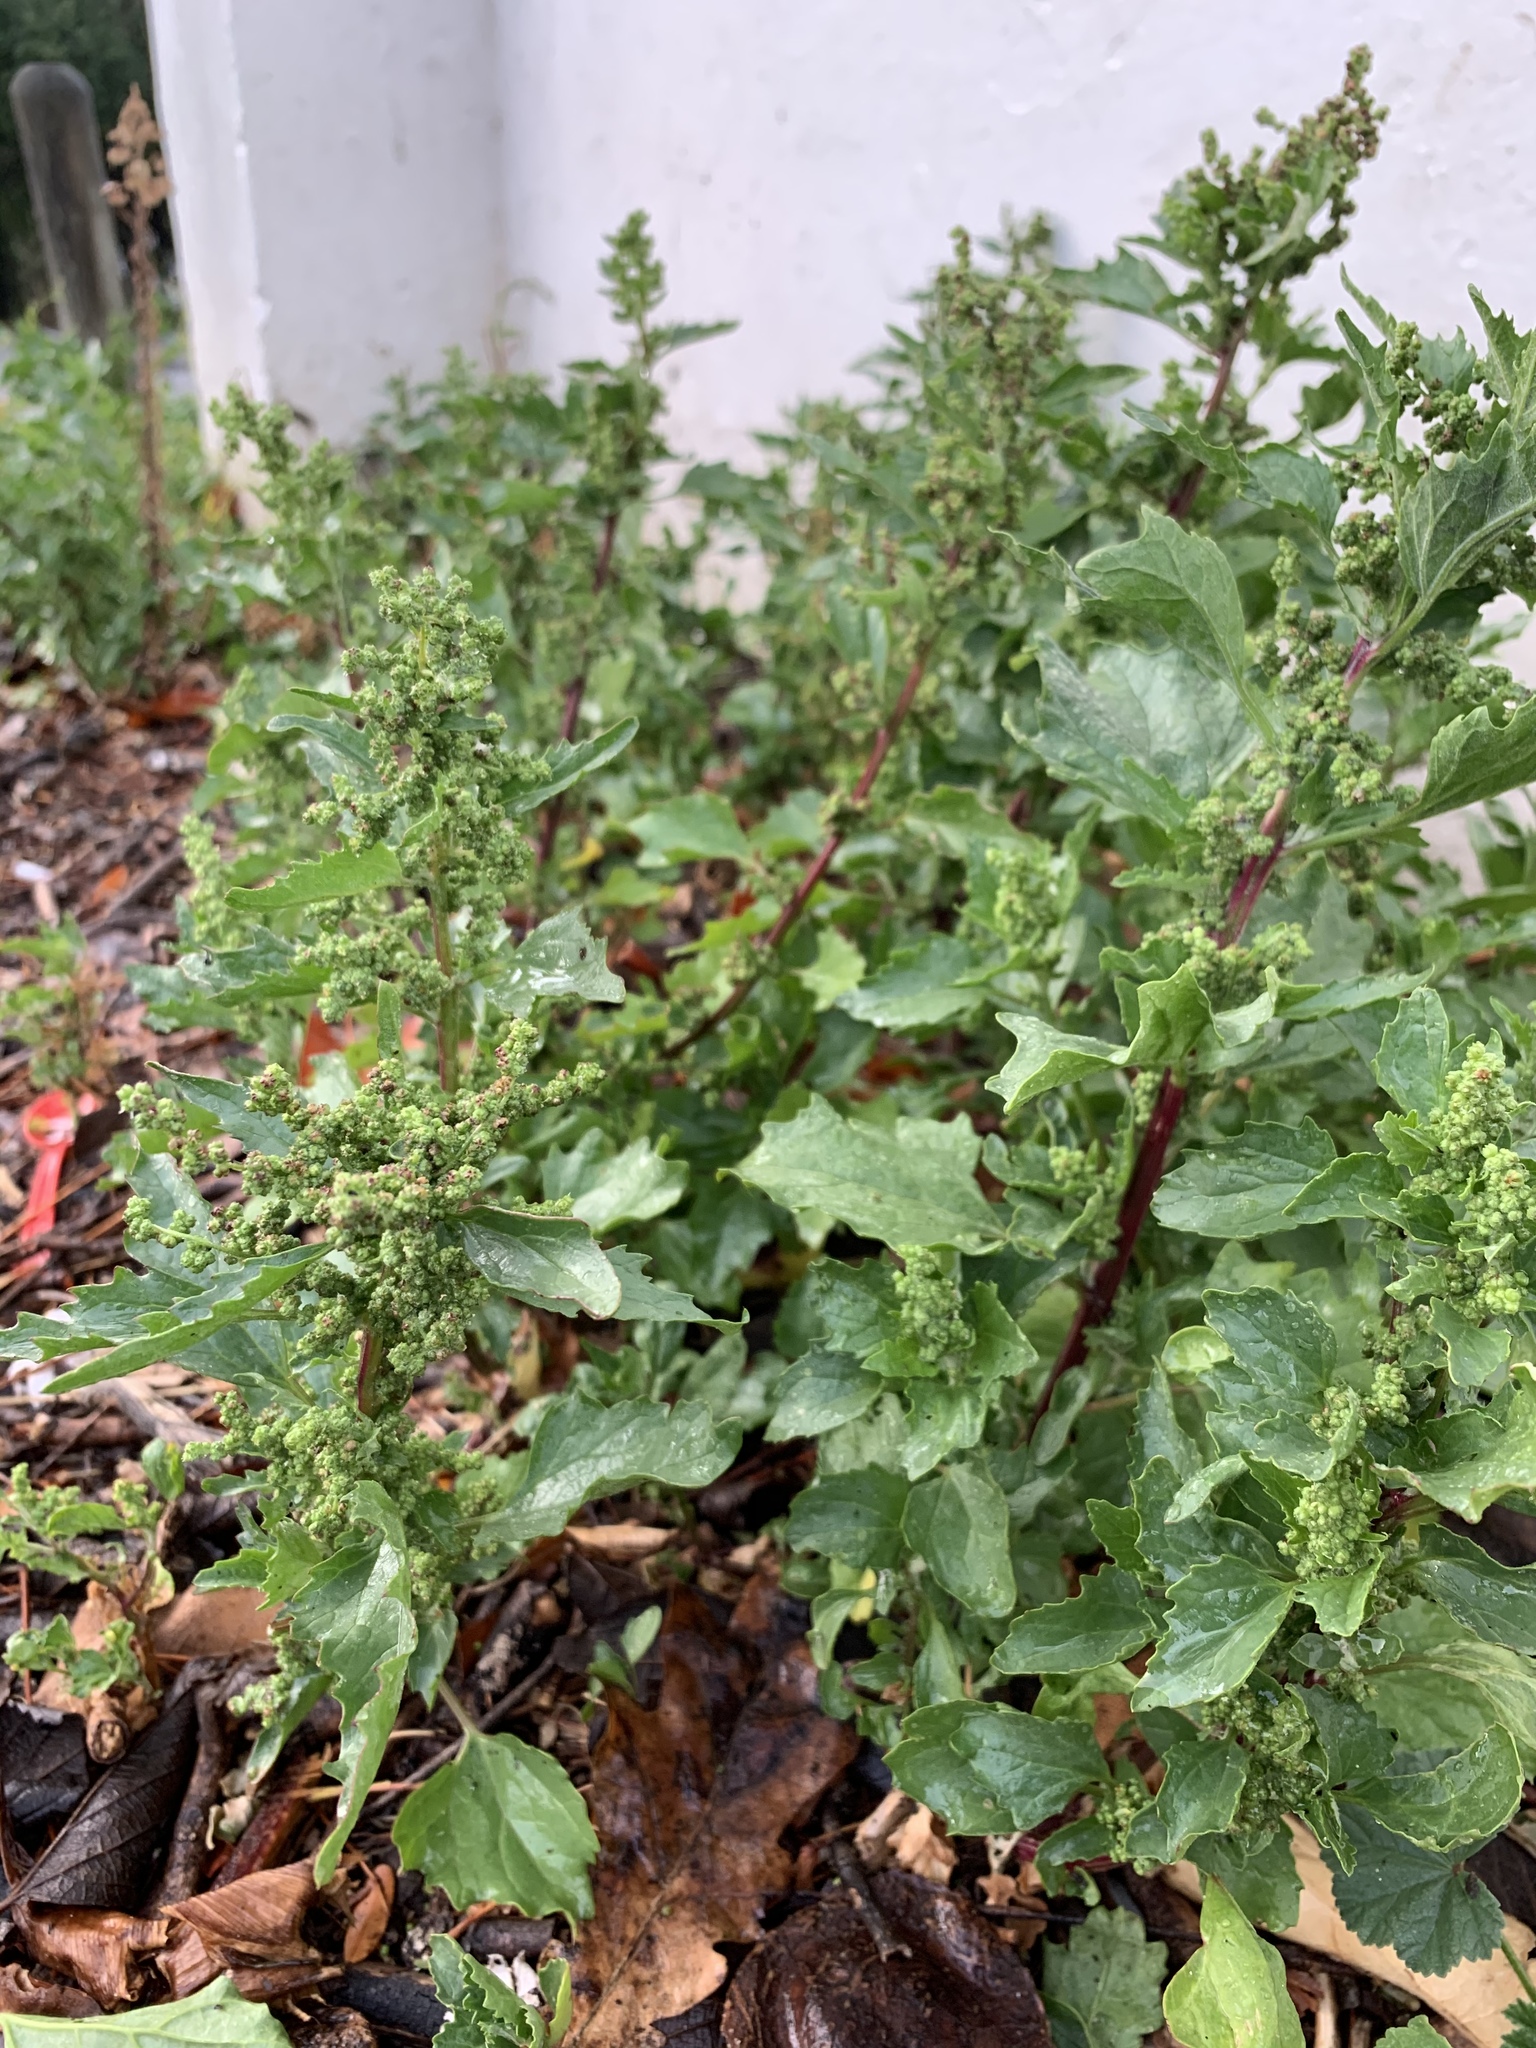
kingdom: Plantae
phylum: Tracheophyta
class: Magnoliopsida
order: Caryophyllales
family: Amaranthaceae
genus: Chenopodiastrum
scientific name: Chenopodiastrum murale
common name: Sowbane
